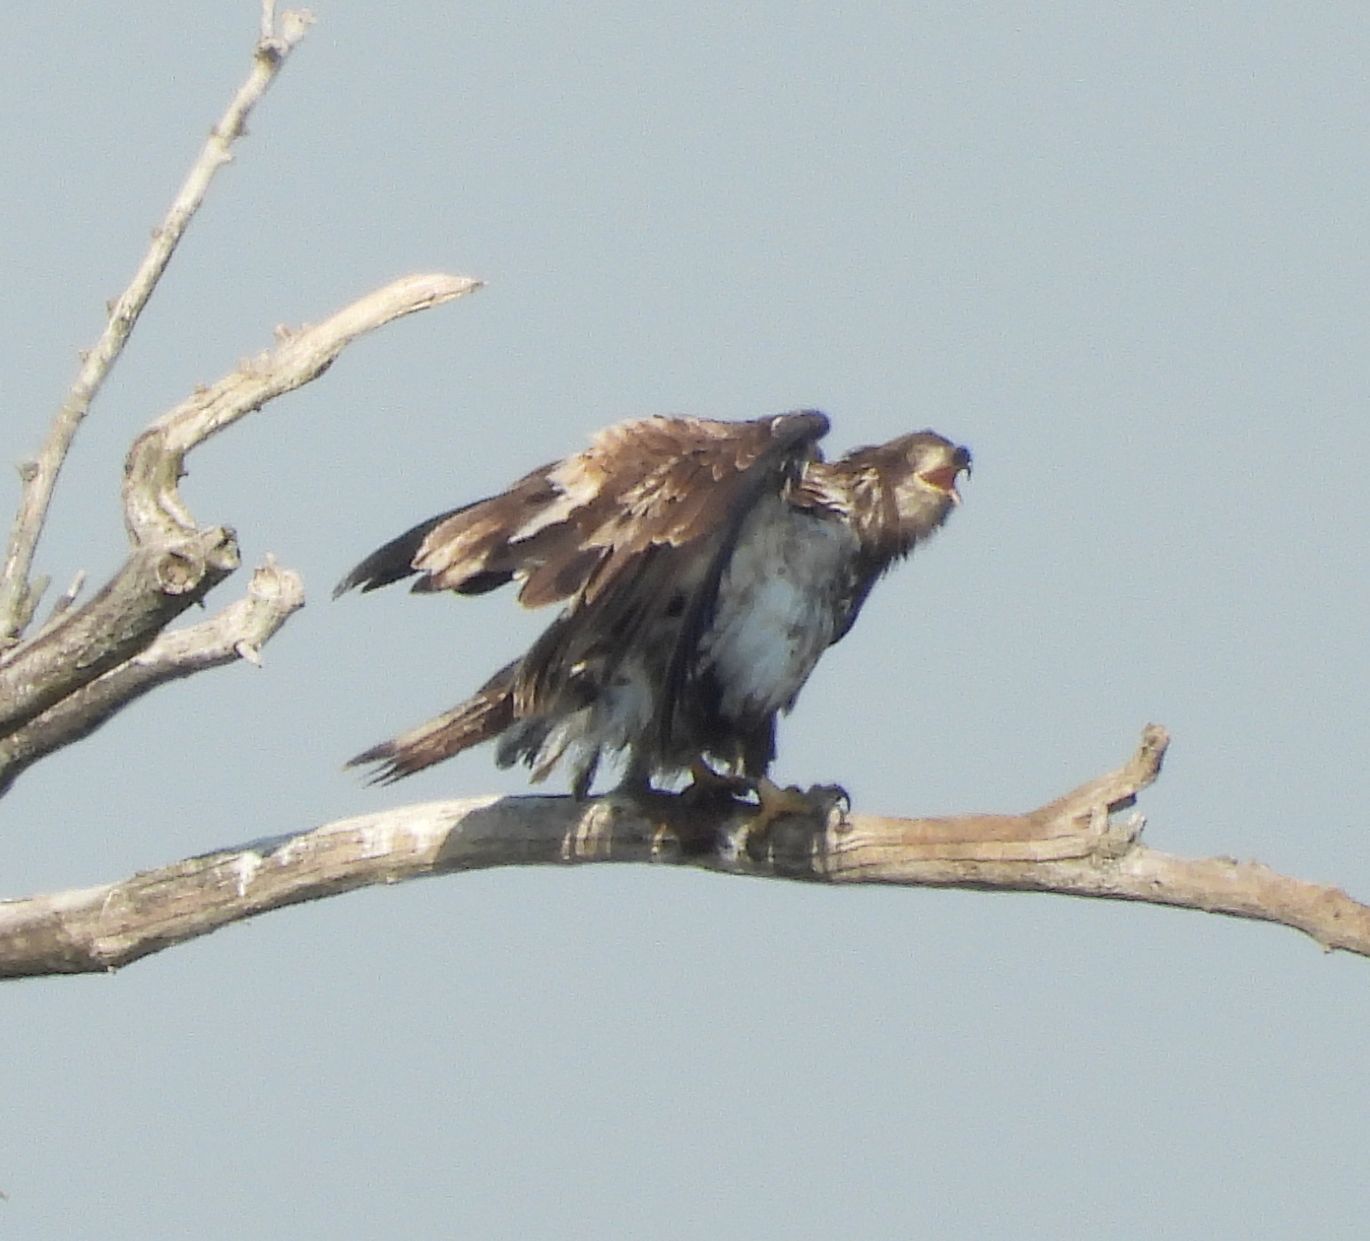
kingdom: Animalia
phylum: Chordata
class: Aves
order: Accipitriformes
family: Accipitridae
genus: Haliaeetus
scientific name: Haliaeetus leucocephalus
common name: Bald eagle
